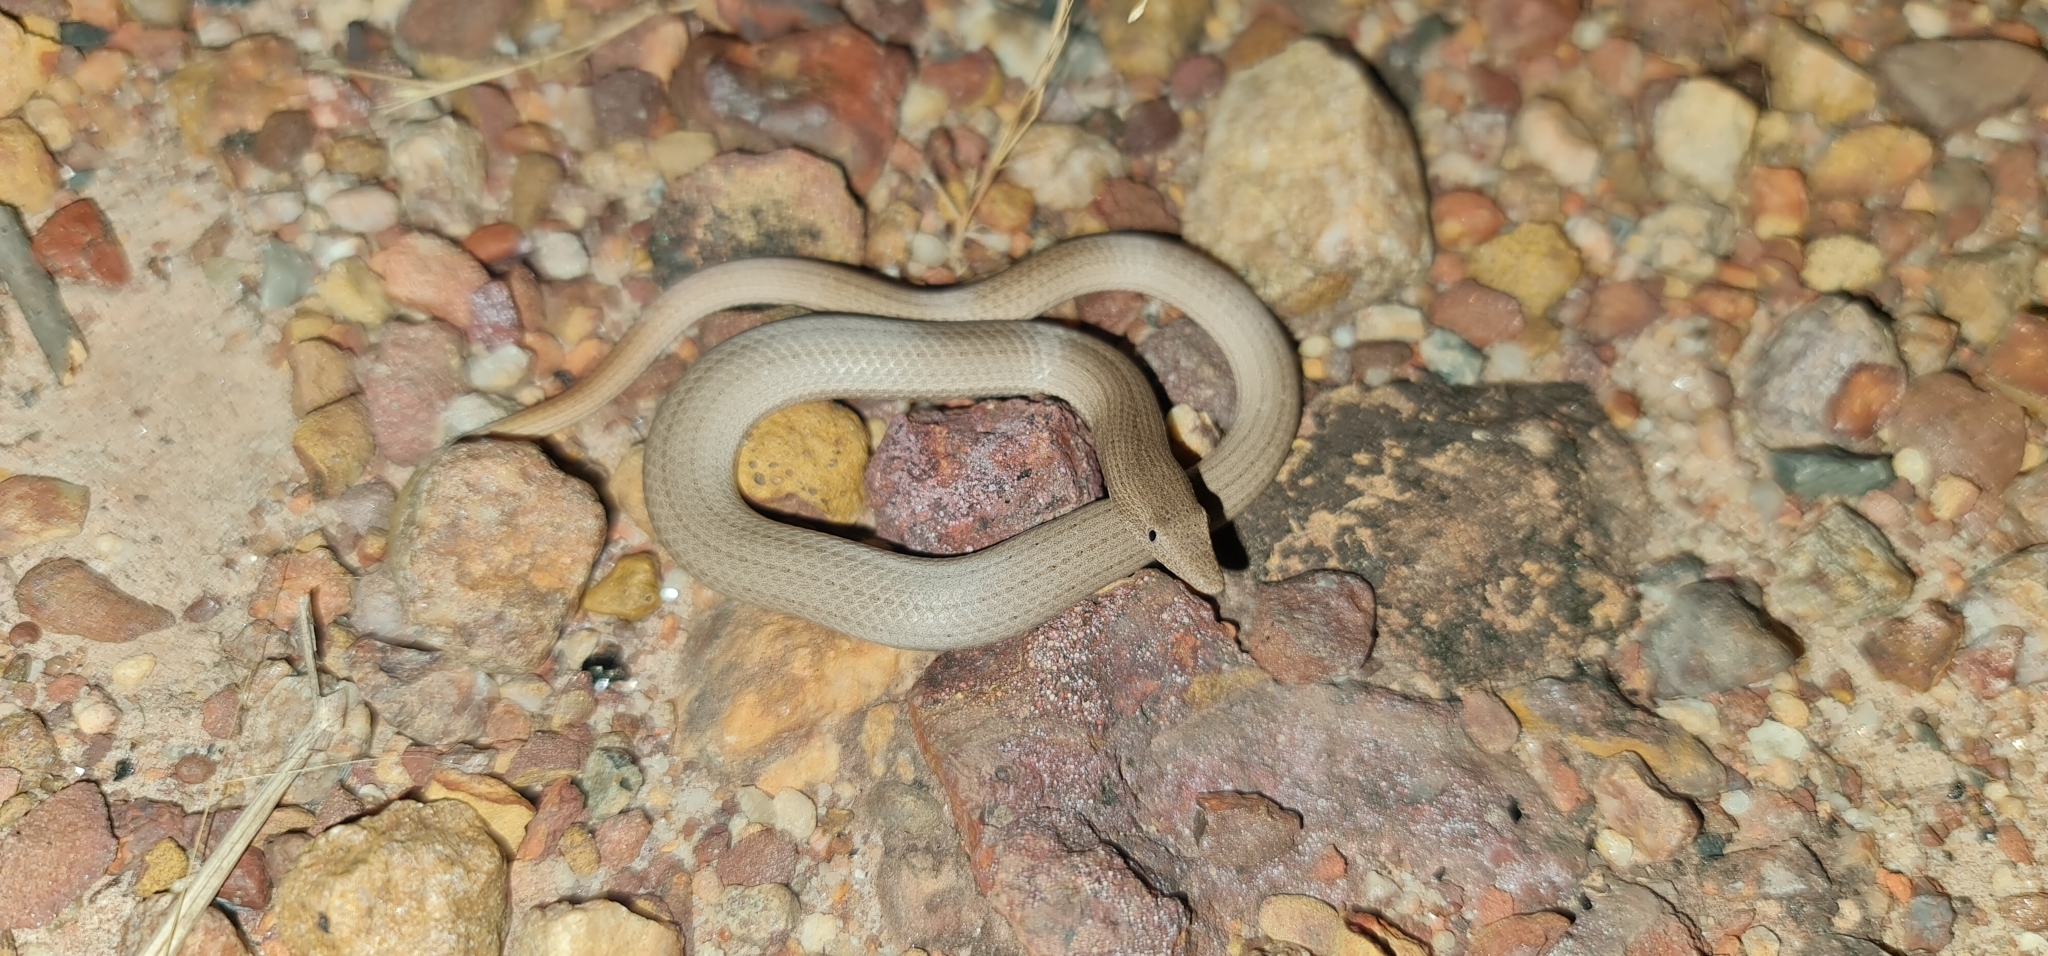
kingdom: Animalia
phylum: Chordata
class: Squamata
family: Pygopodidae
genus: Lialis
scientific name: Lialis burtonis
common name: Burton's legless lizard
